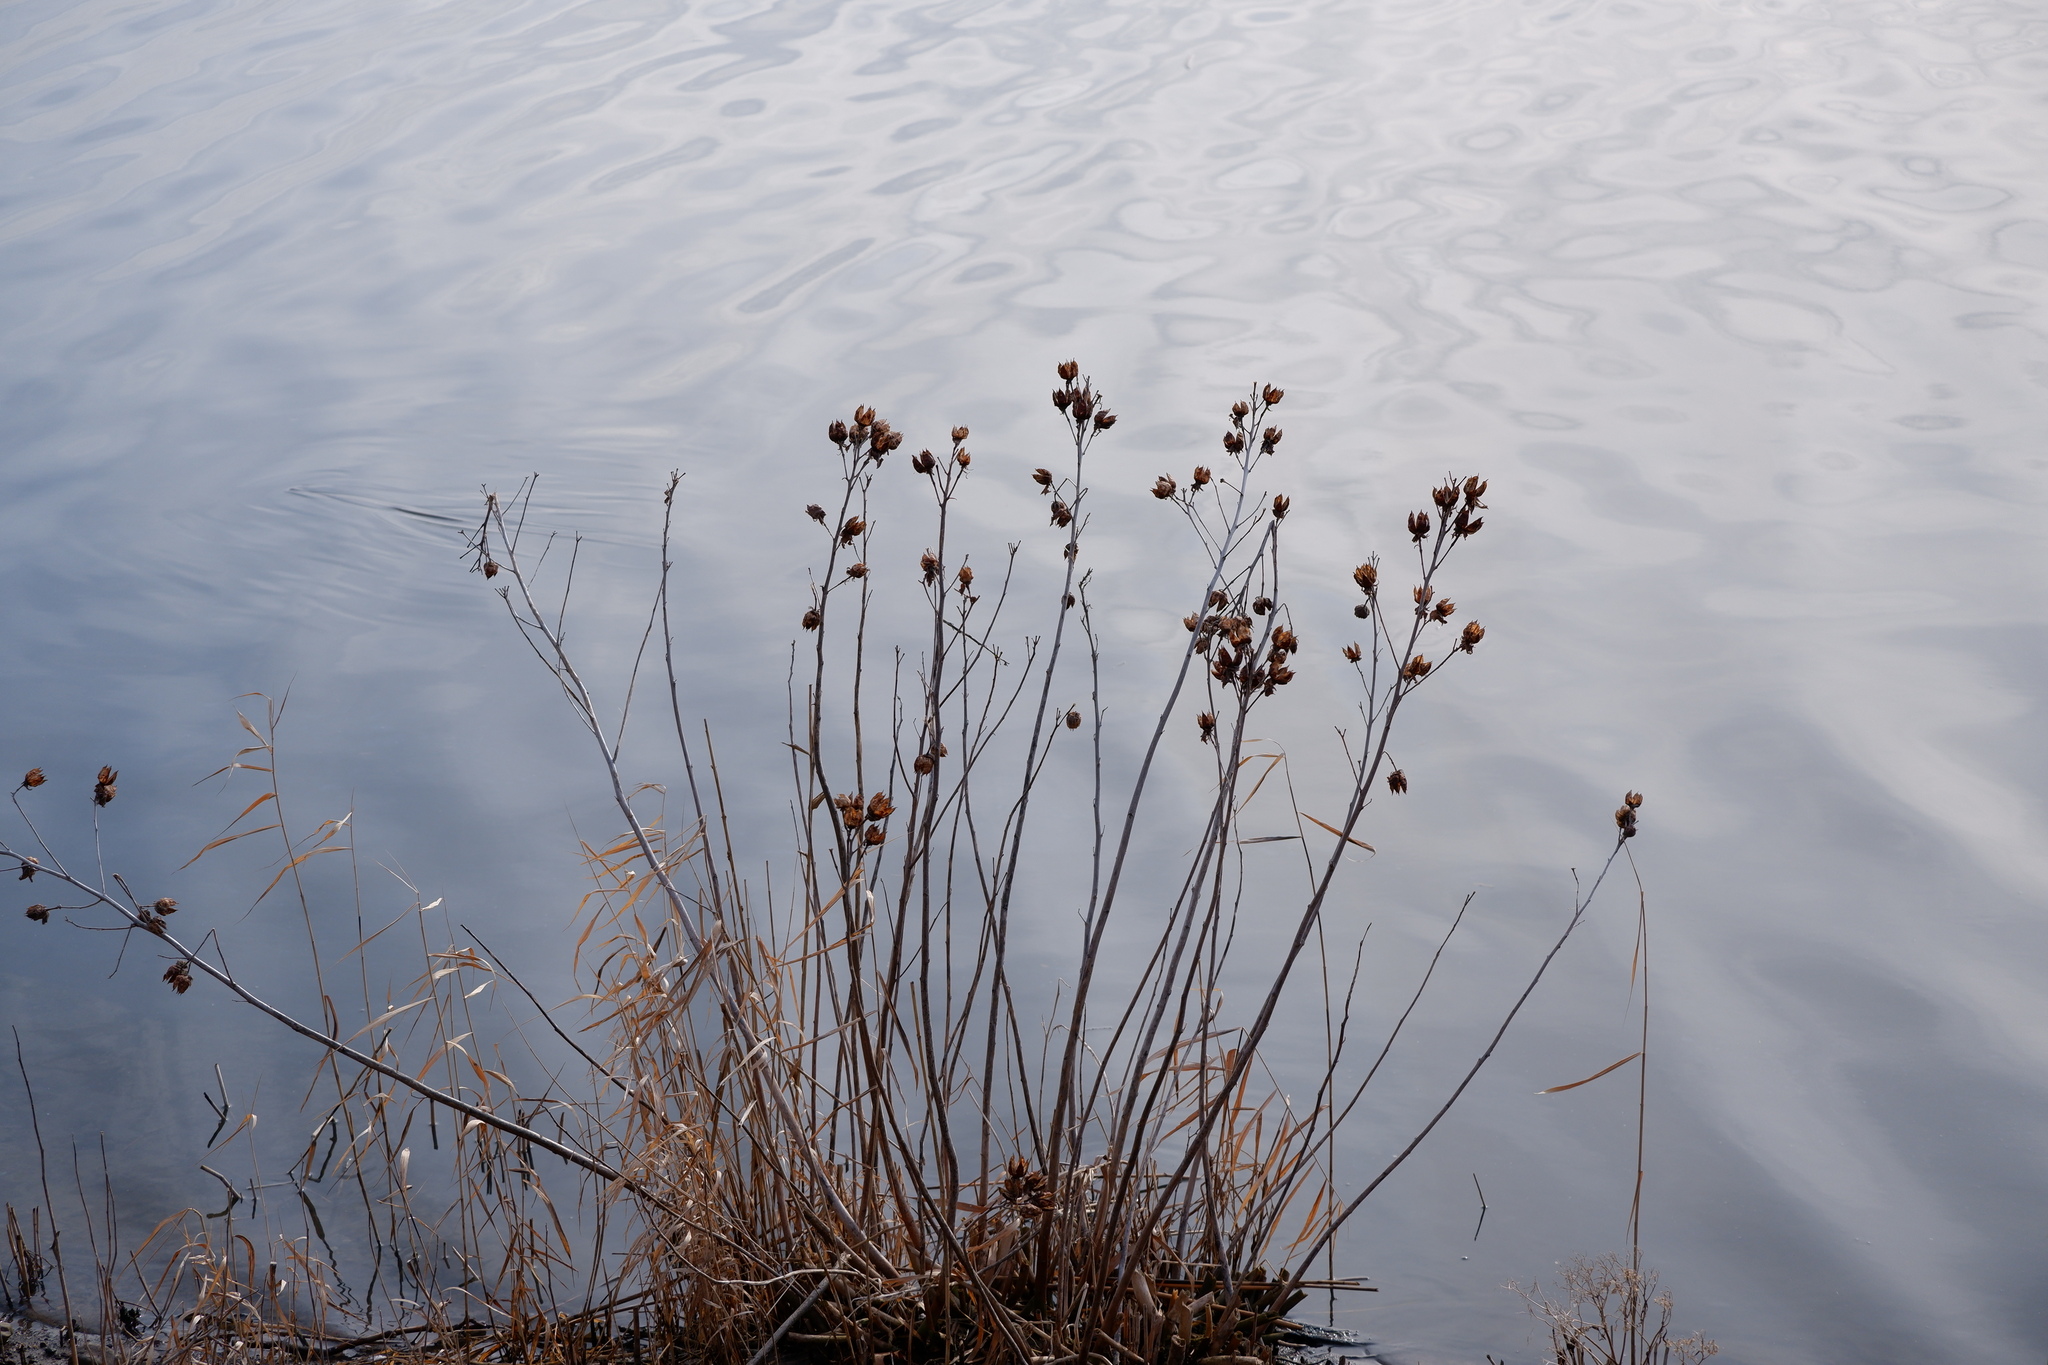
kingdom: Plantae
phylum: Tracheophyta
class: Magnoliopsida
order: Malvales
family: Malvaceae
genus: Hibiscus
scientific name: Hibiscus moscheutos
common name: Common rose-mallow
